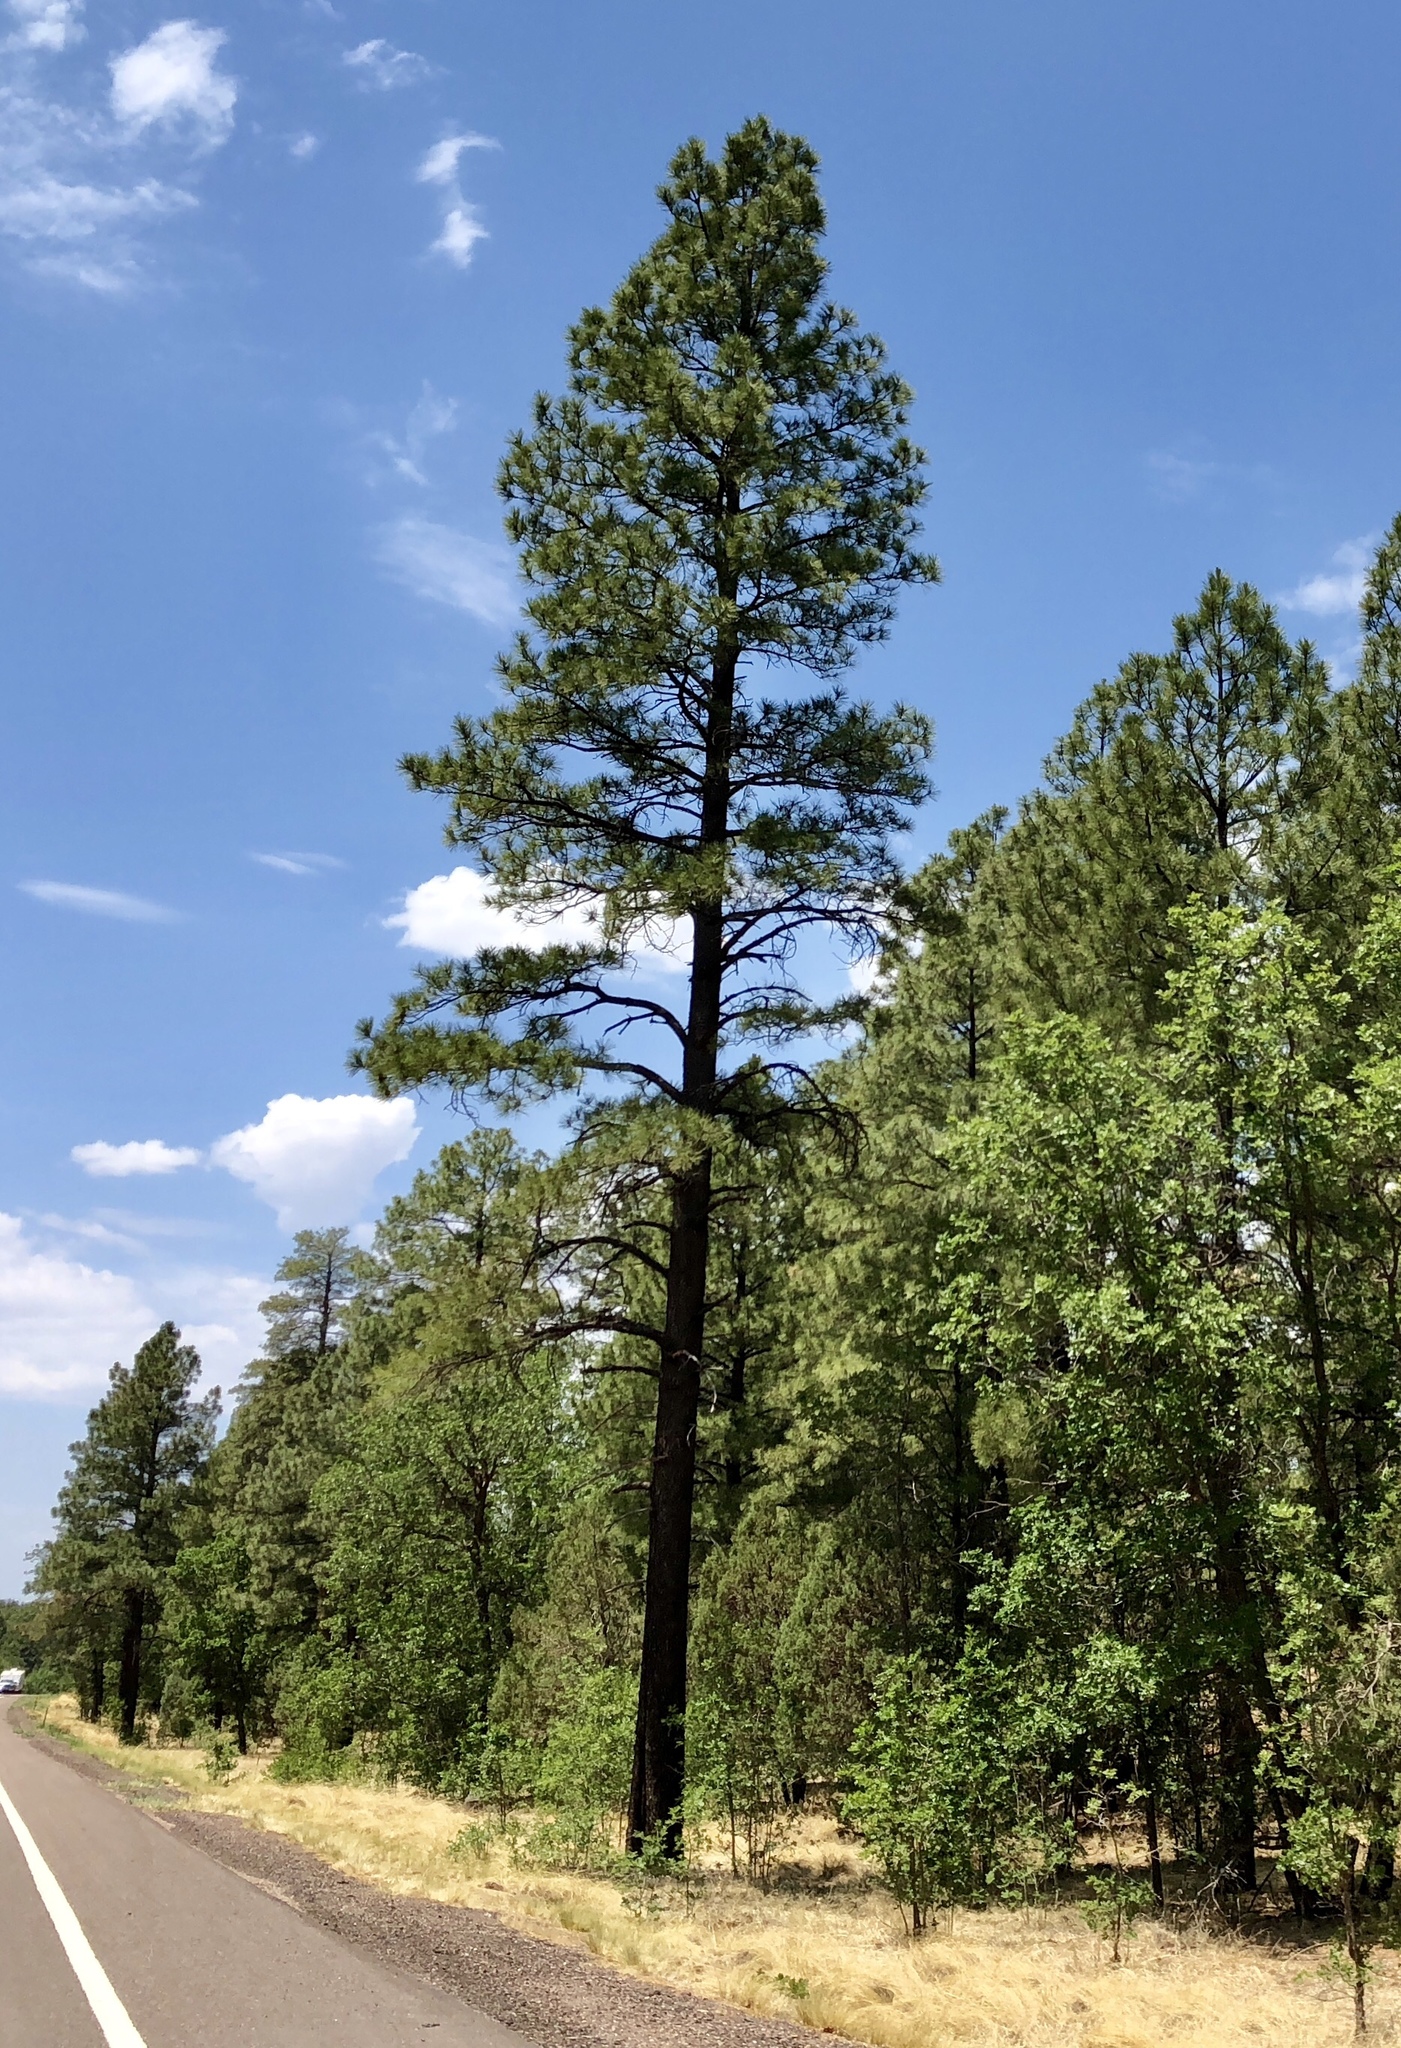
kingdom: Plantae
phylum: Tracheophyta
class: Pinopsida
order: Pinales
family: Pinaceae
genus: Pinus
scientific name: Pinus ponderosa
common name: Western yellow-pine
